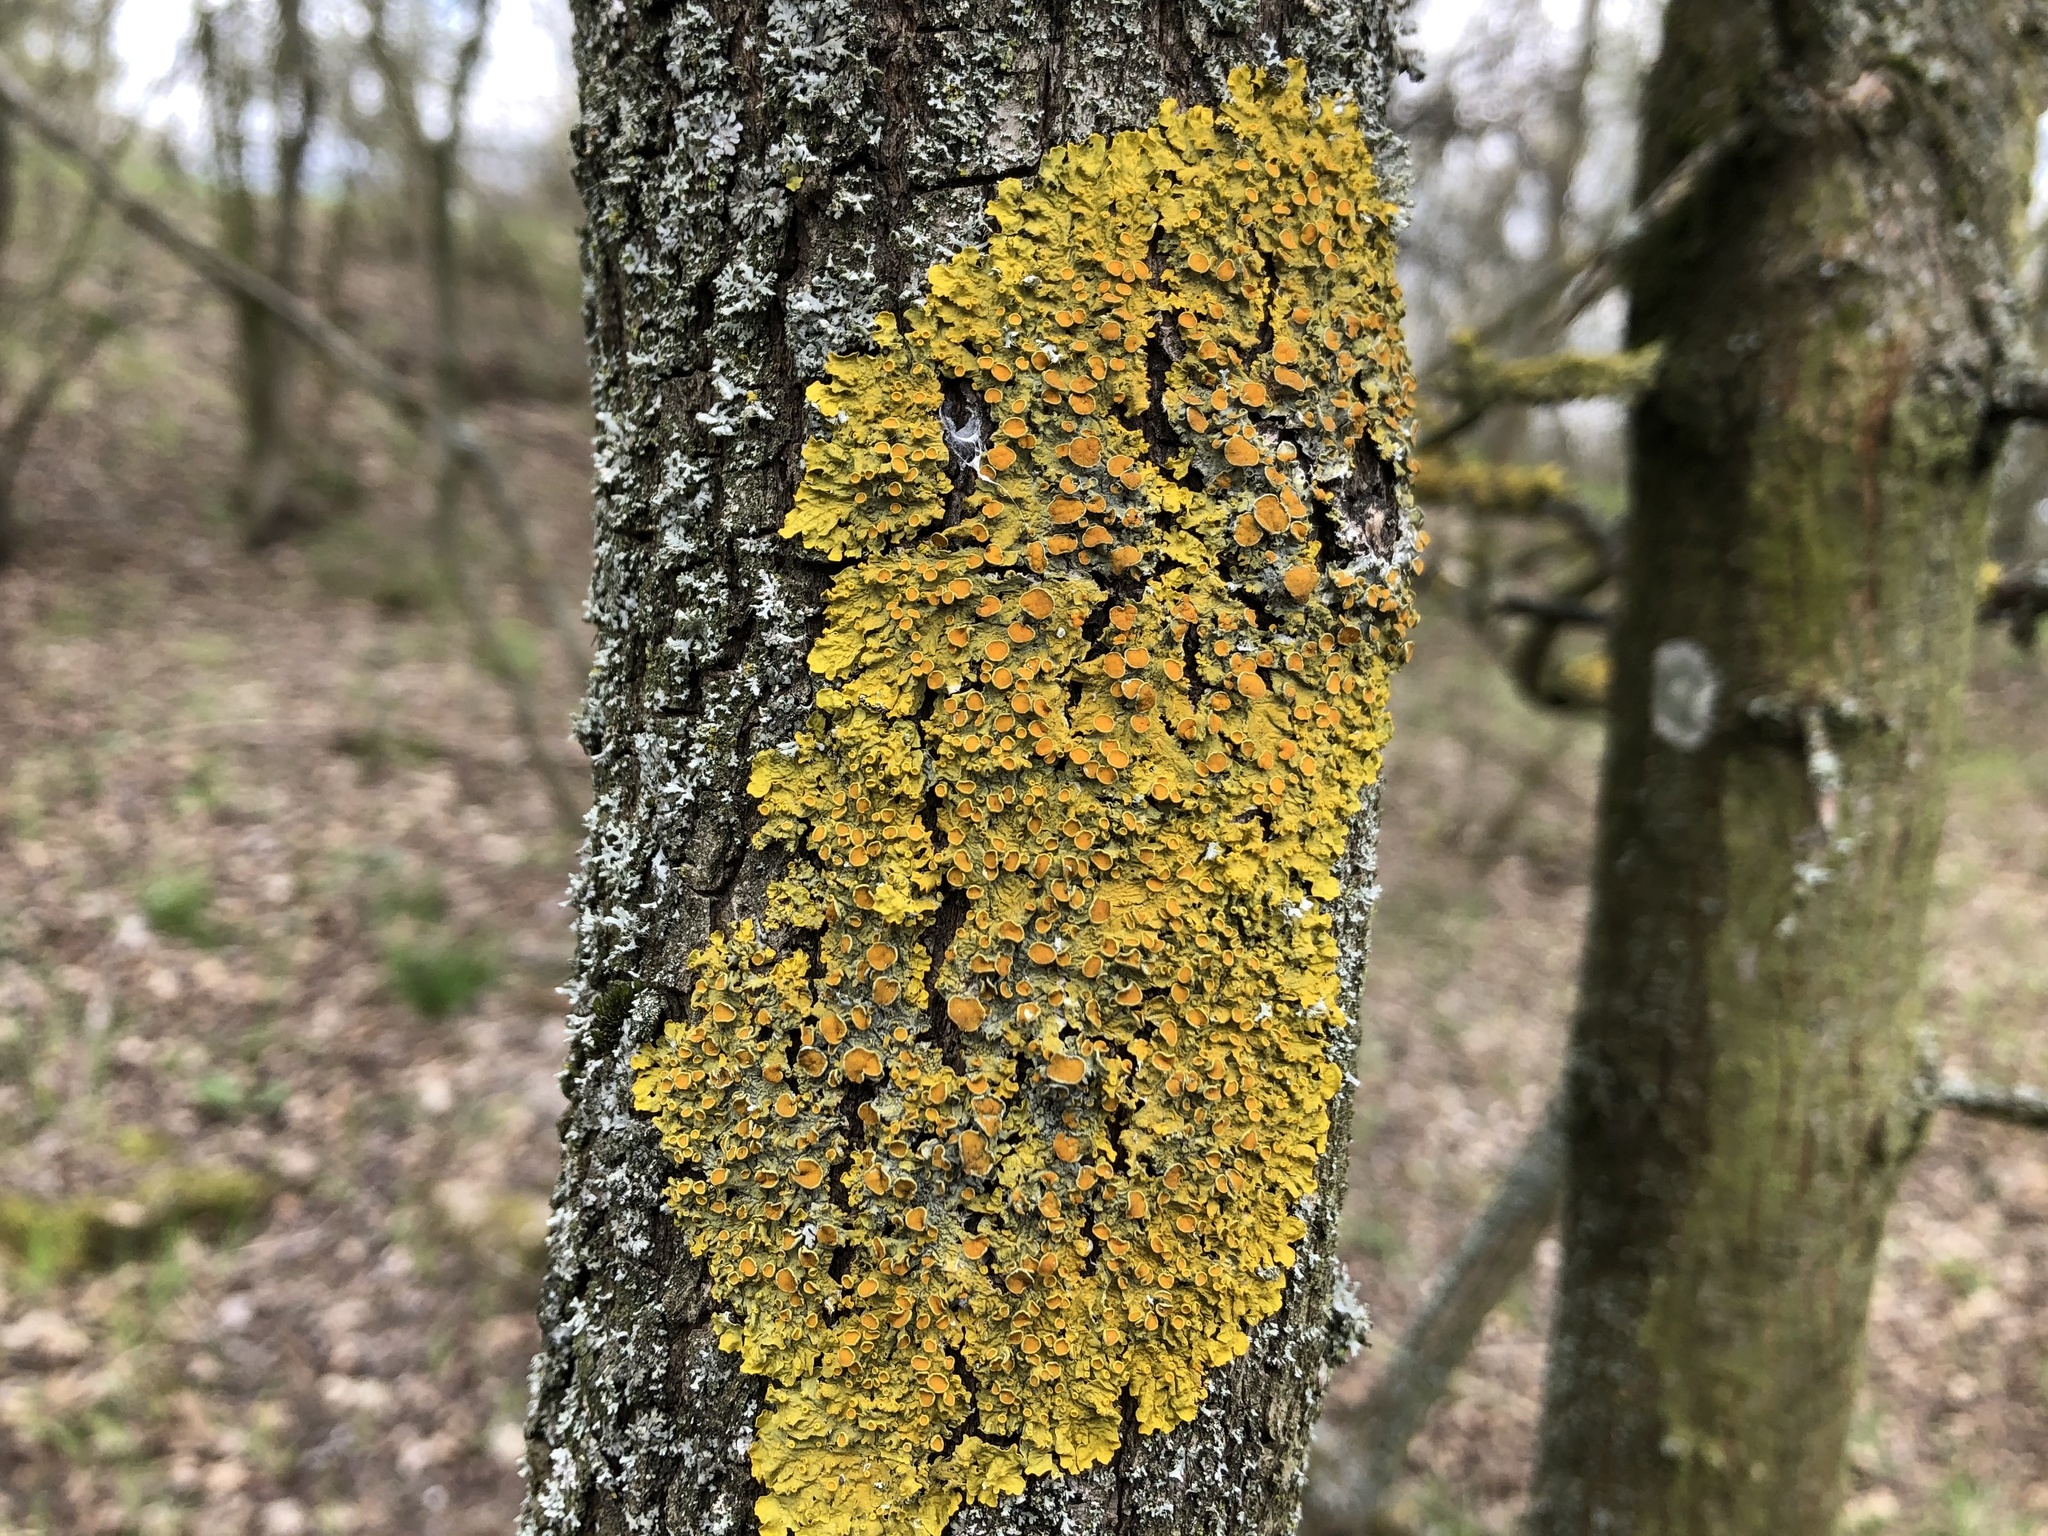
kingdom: Fungi
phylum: Ascomycota
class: Lecanoromycetes
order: Teloschistales
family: Teloschistaceae
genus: Xanthoria
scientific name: Xanthoria parietina
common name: Common orange lichen
